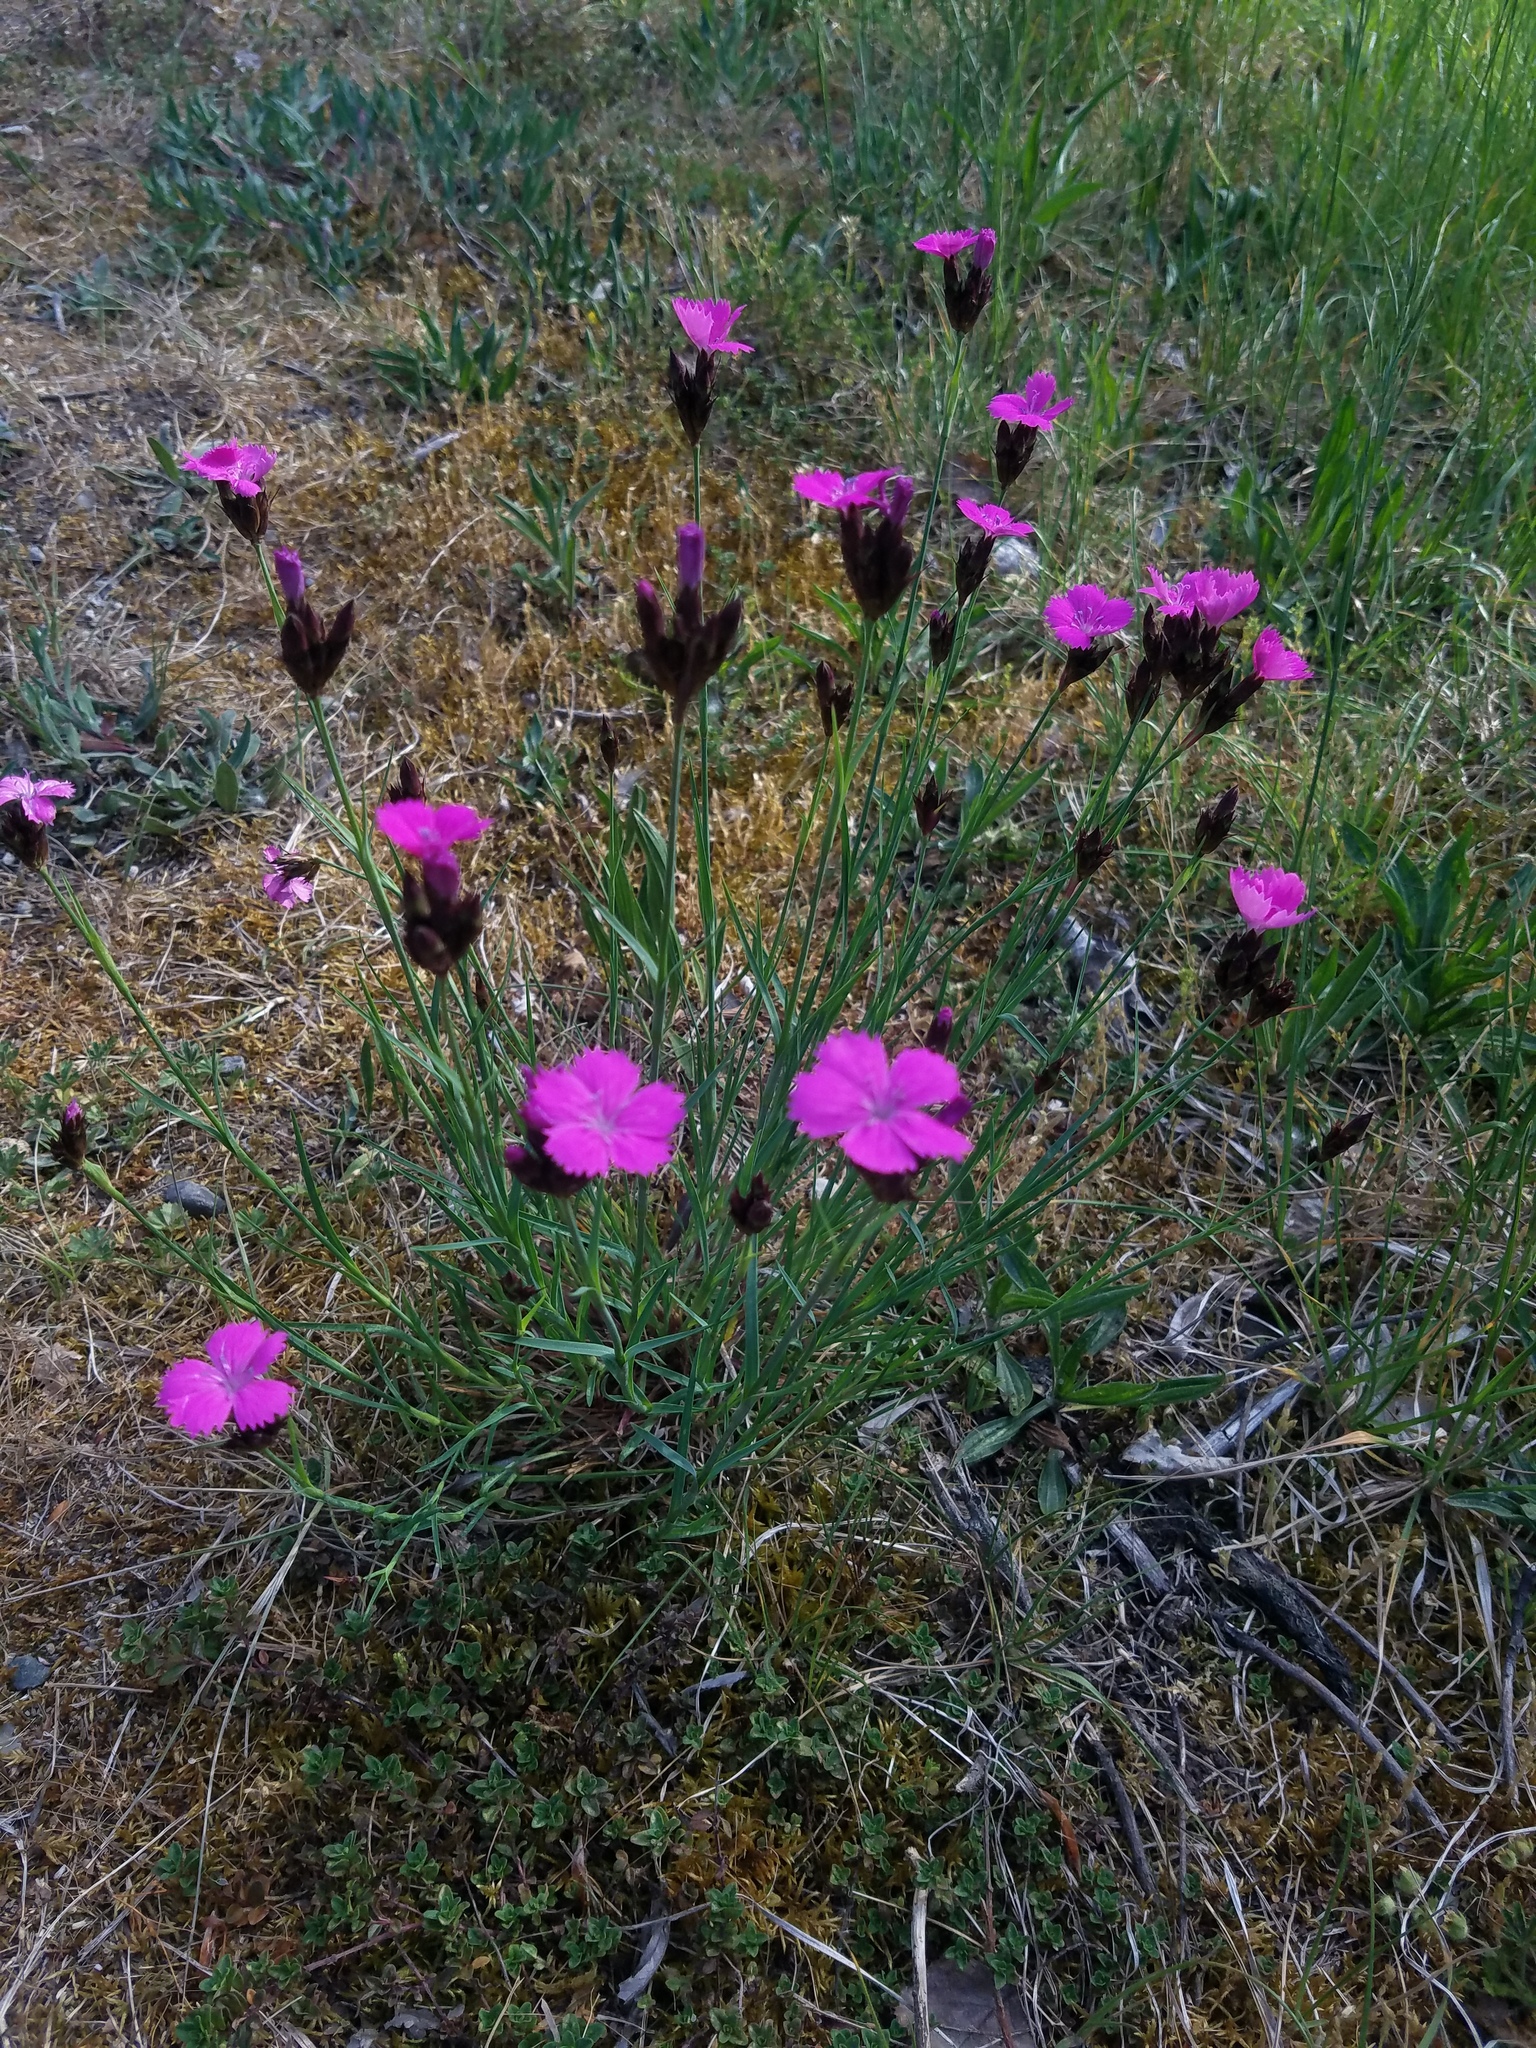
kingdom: Plantae
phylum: Tracheophyta
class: Magnoliopsida
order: Caryophyllales
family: Caryophyllaceae
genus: Dianthus
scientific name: Dianthus carthusianorum
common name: Carthusian pink
